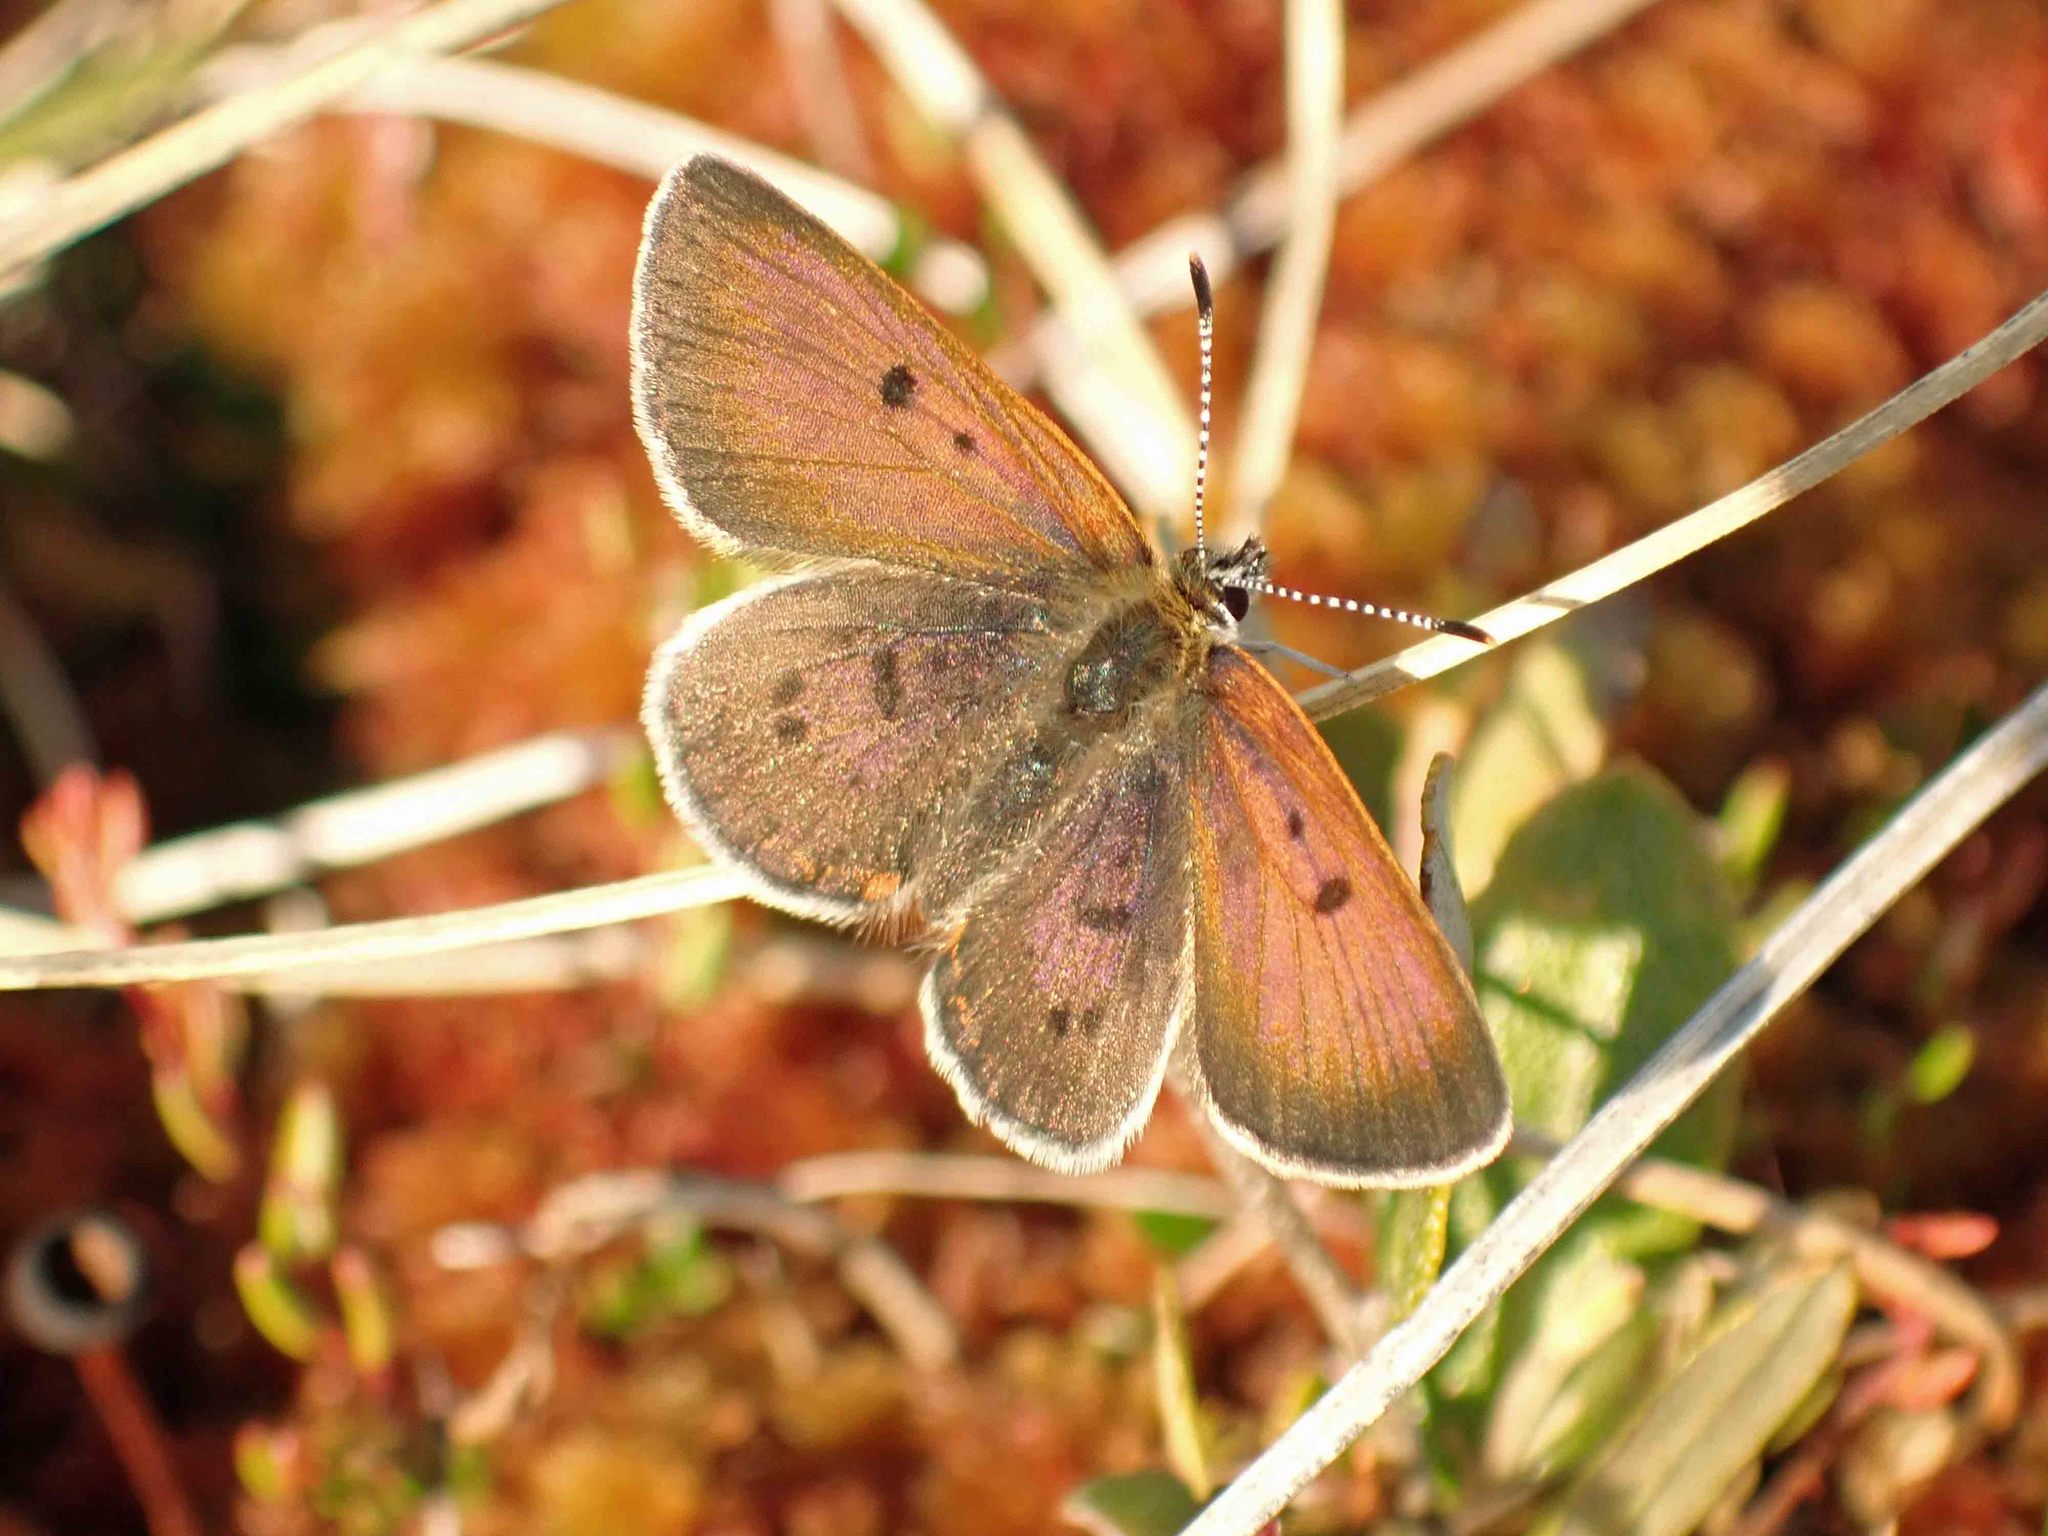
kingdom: Animalia
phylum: Arthropoda
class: Insecta
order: Lepidoptera
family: Lycaenidae
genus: Tharsalea
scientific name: Tharsalea epixanthe
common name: Bog copper
